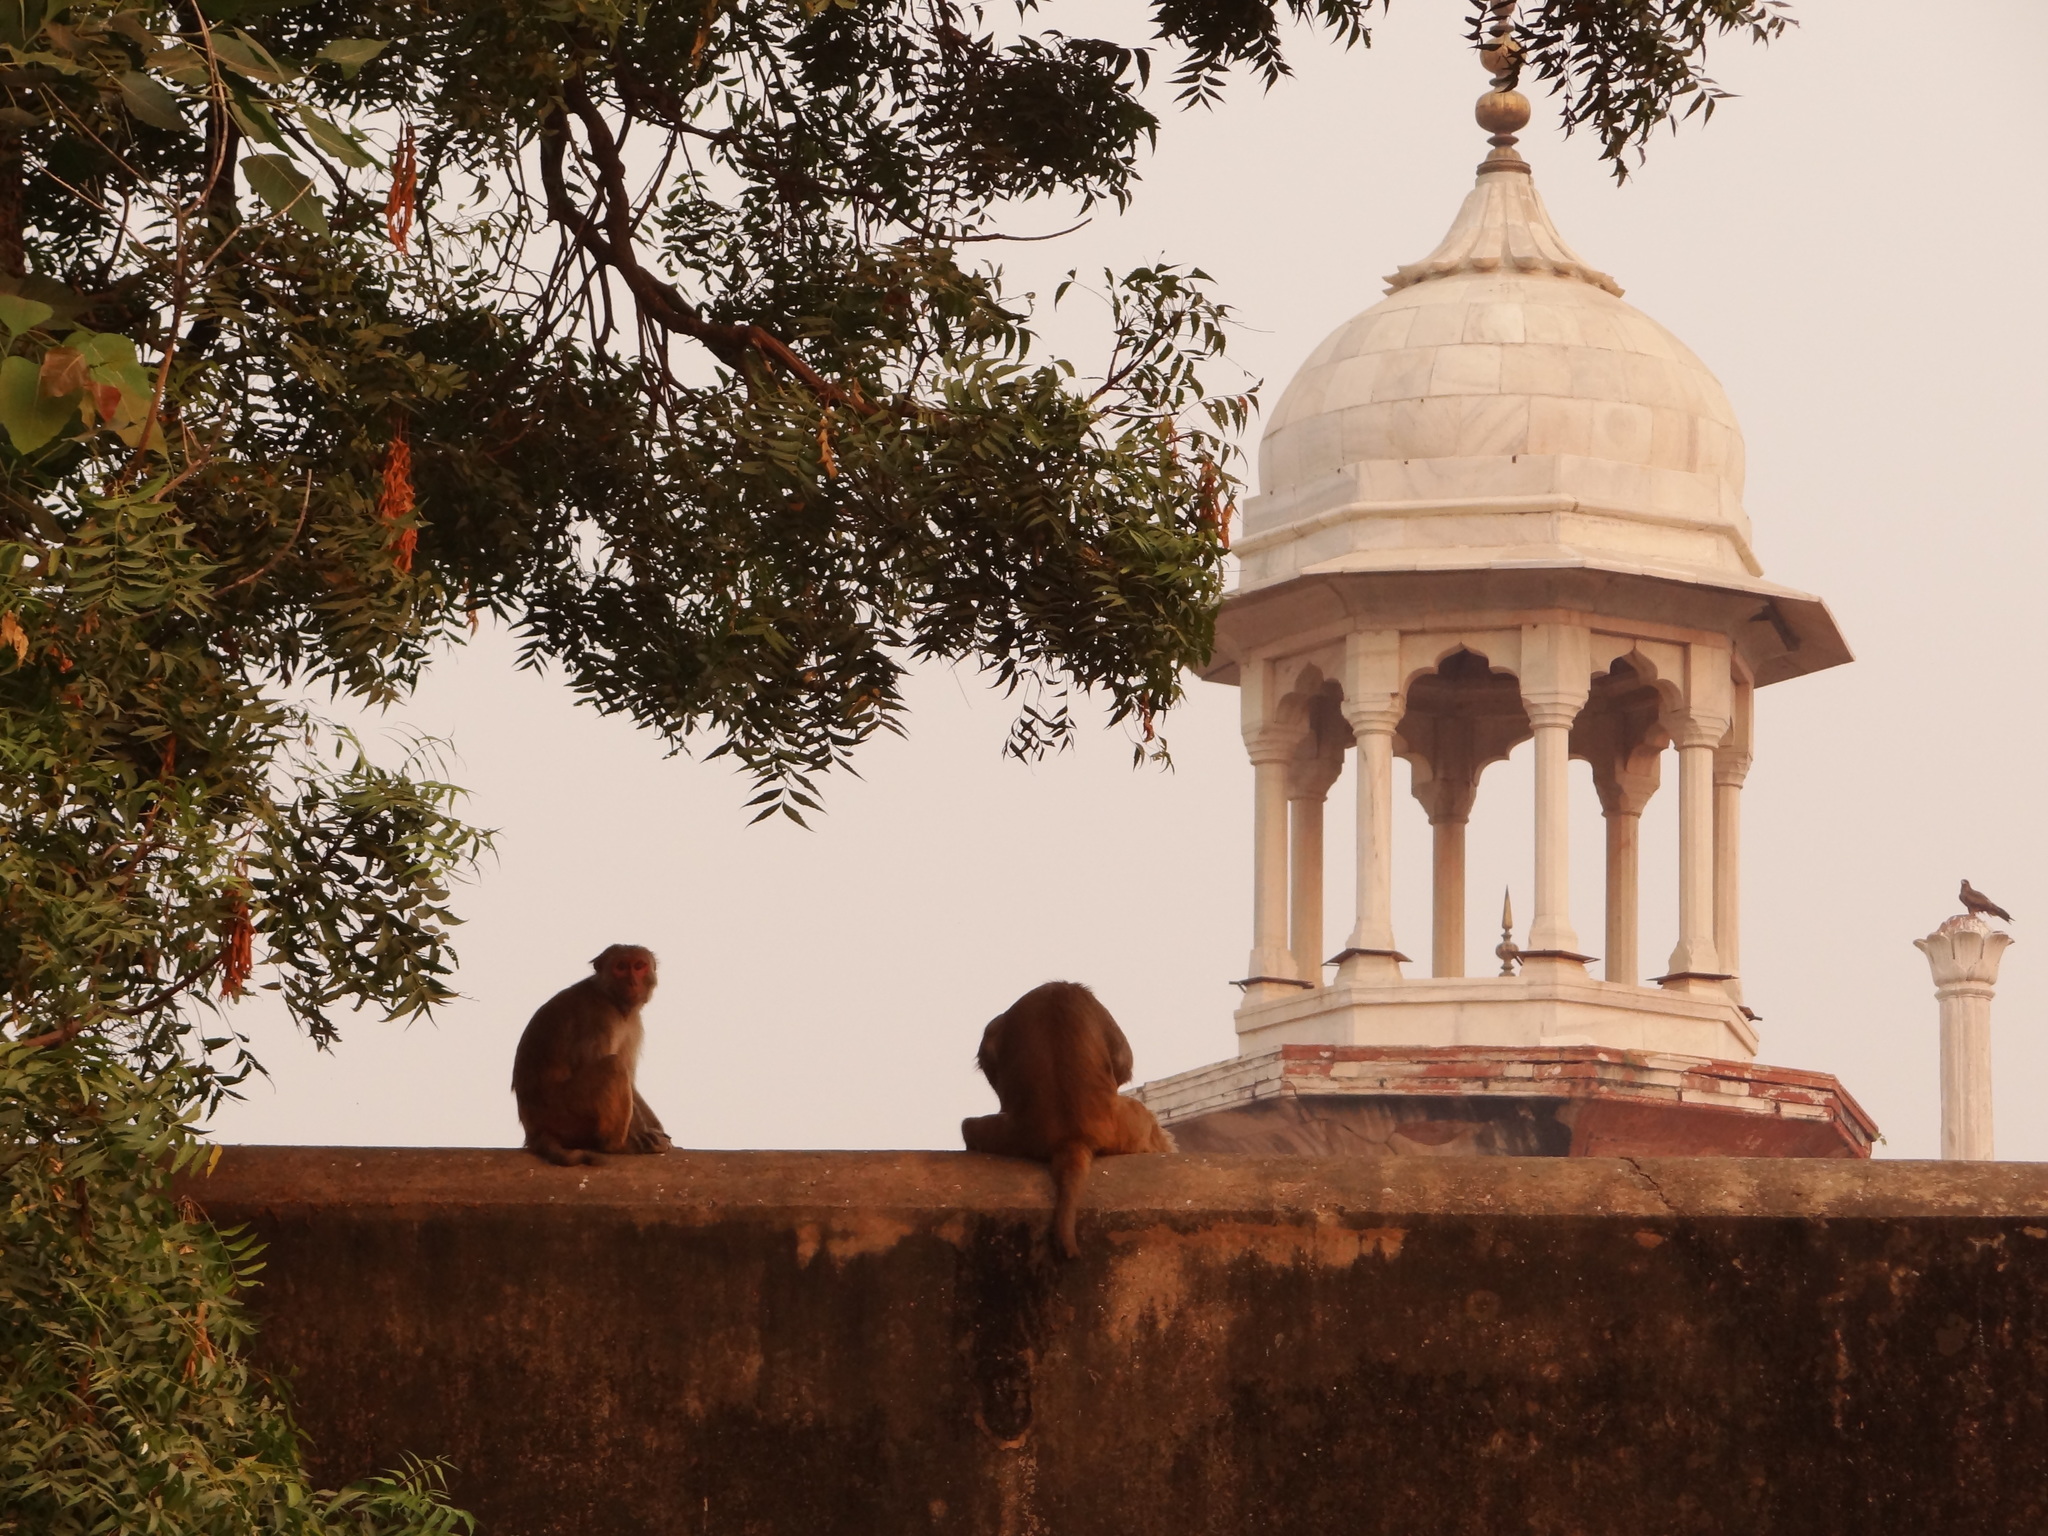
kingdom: Animalia
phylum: Chordata
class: Mammalia
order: Primates
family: Cercopithecidae
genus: Macaca
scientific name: Macaca mulatta
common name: Rhesus monkey
